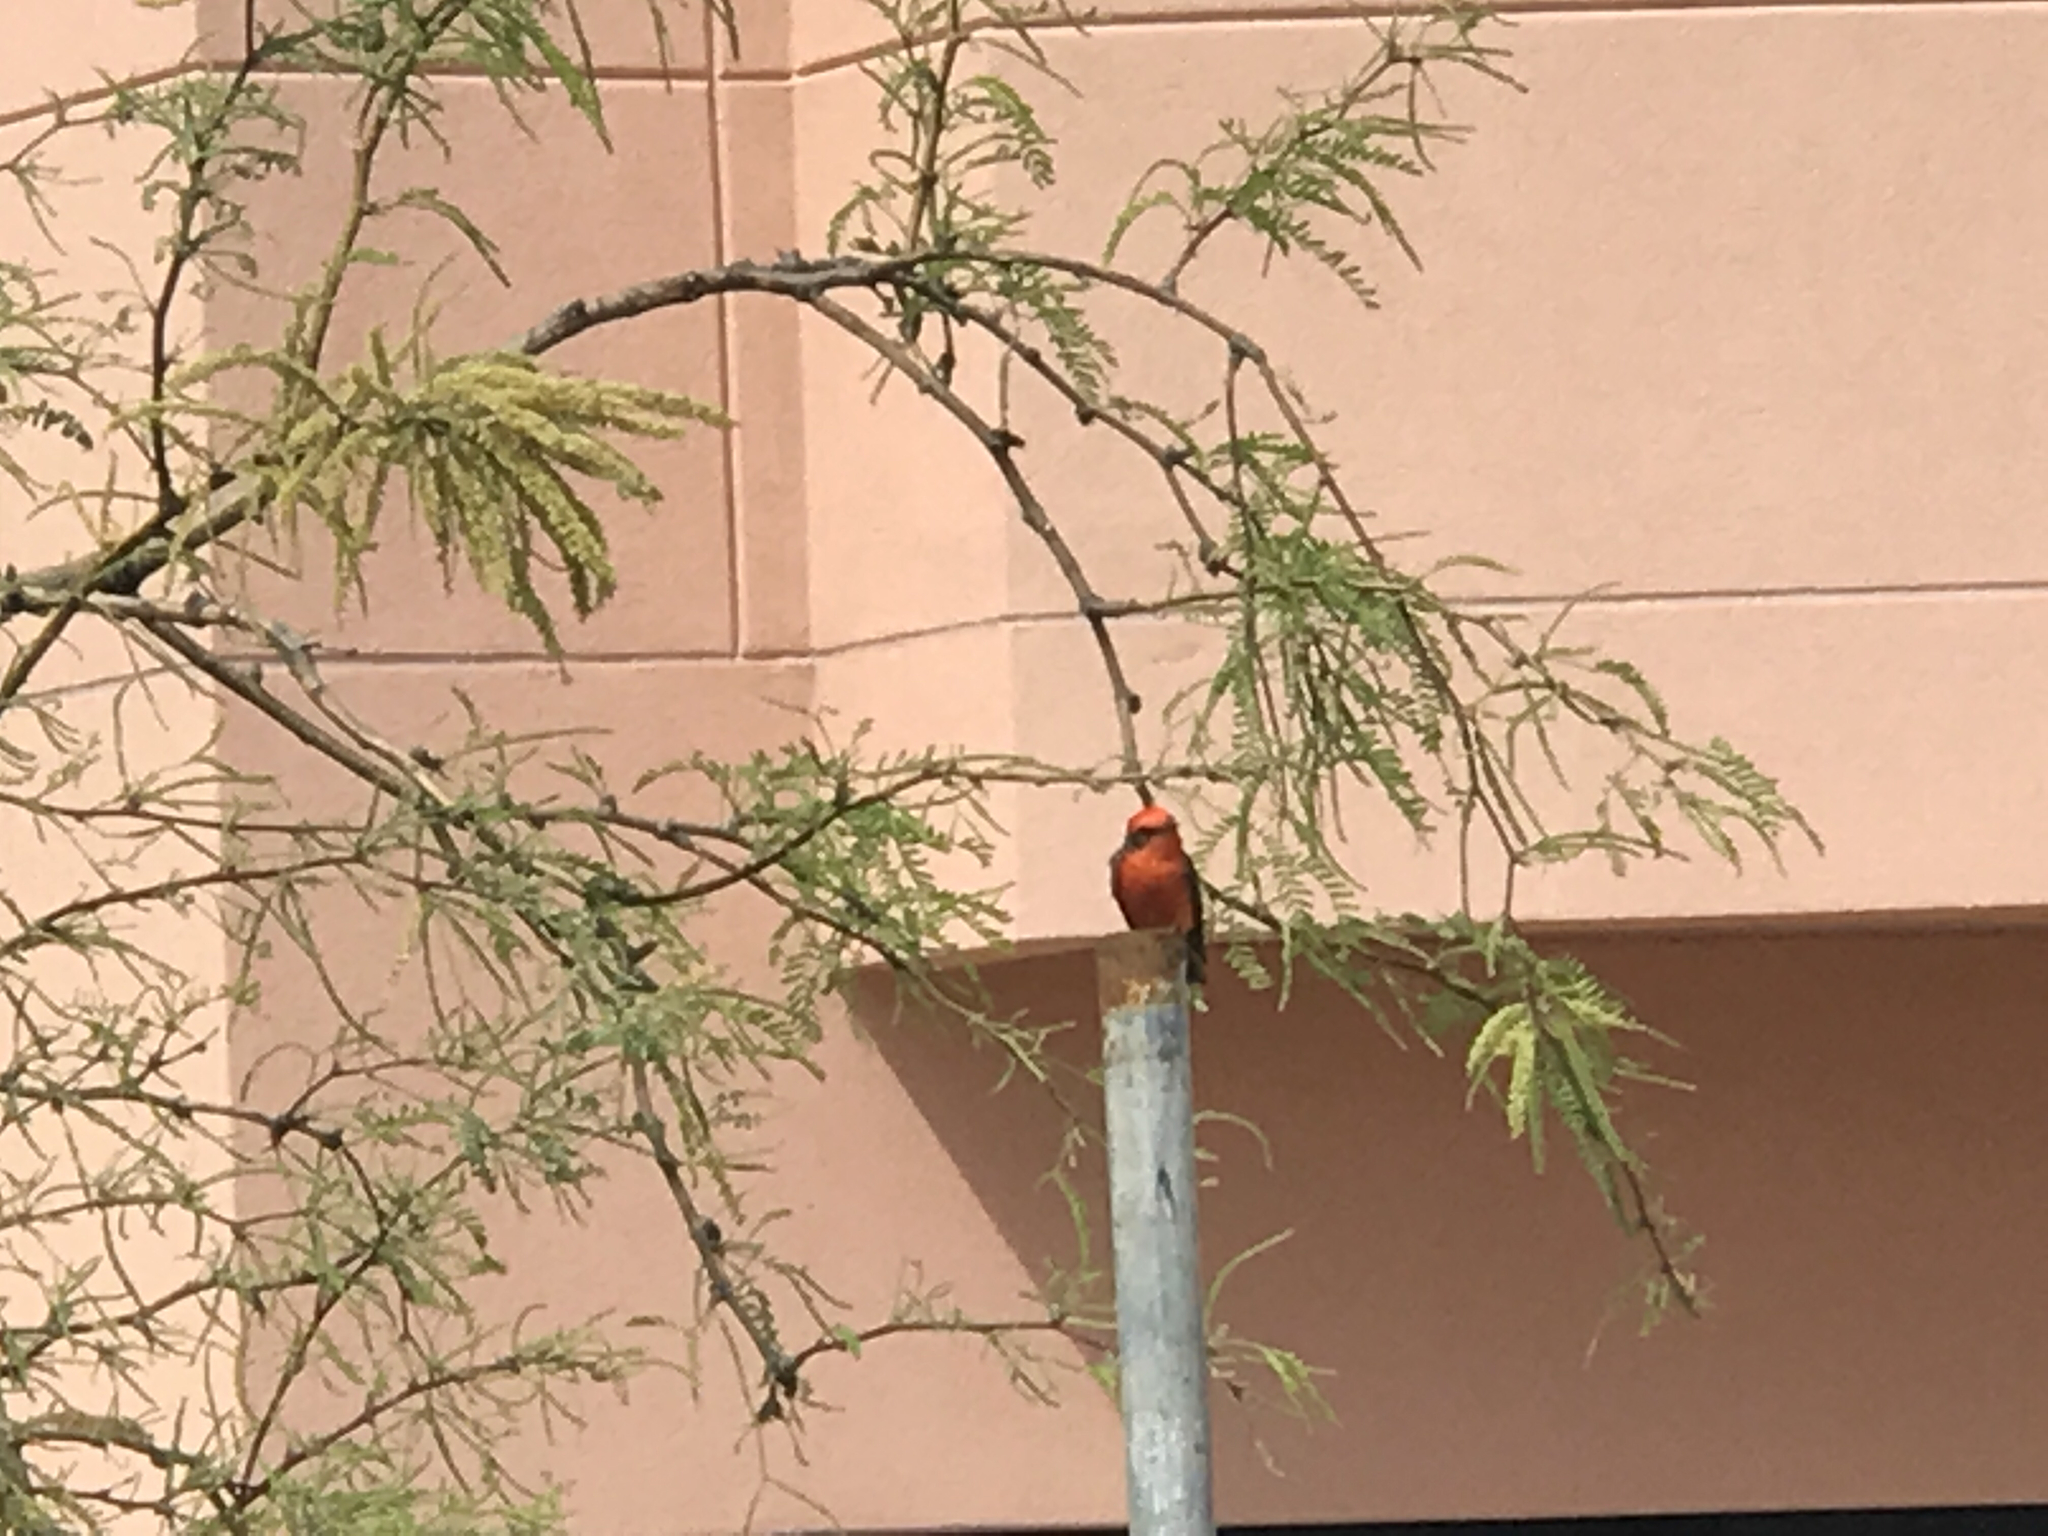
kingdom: Animalia
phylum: Chordata
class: Aves
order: Passeriformes
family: Tyrannidae
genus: Pyrocephalus
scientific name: Pyrocephalus rubinus
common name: Vermilion flycatcher
